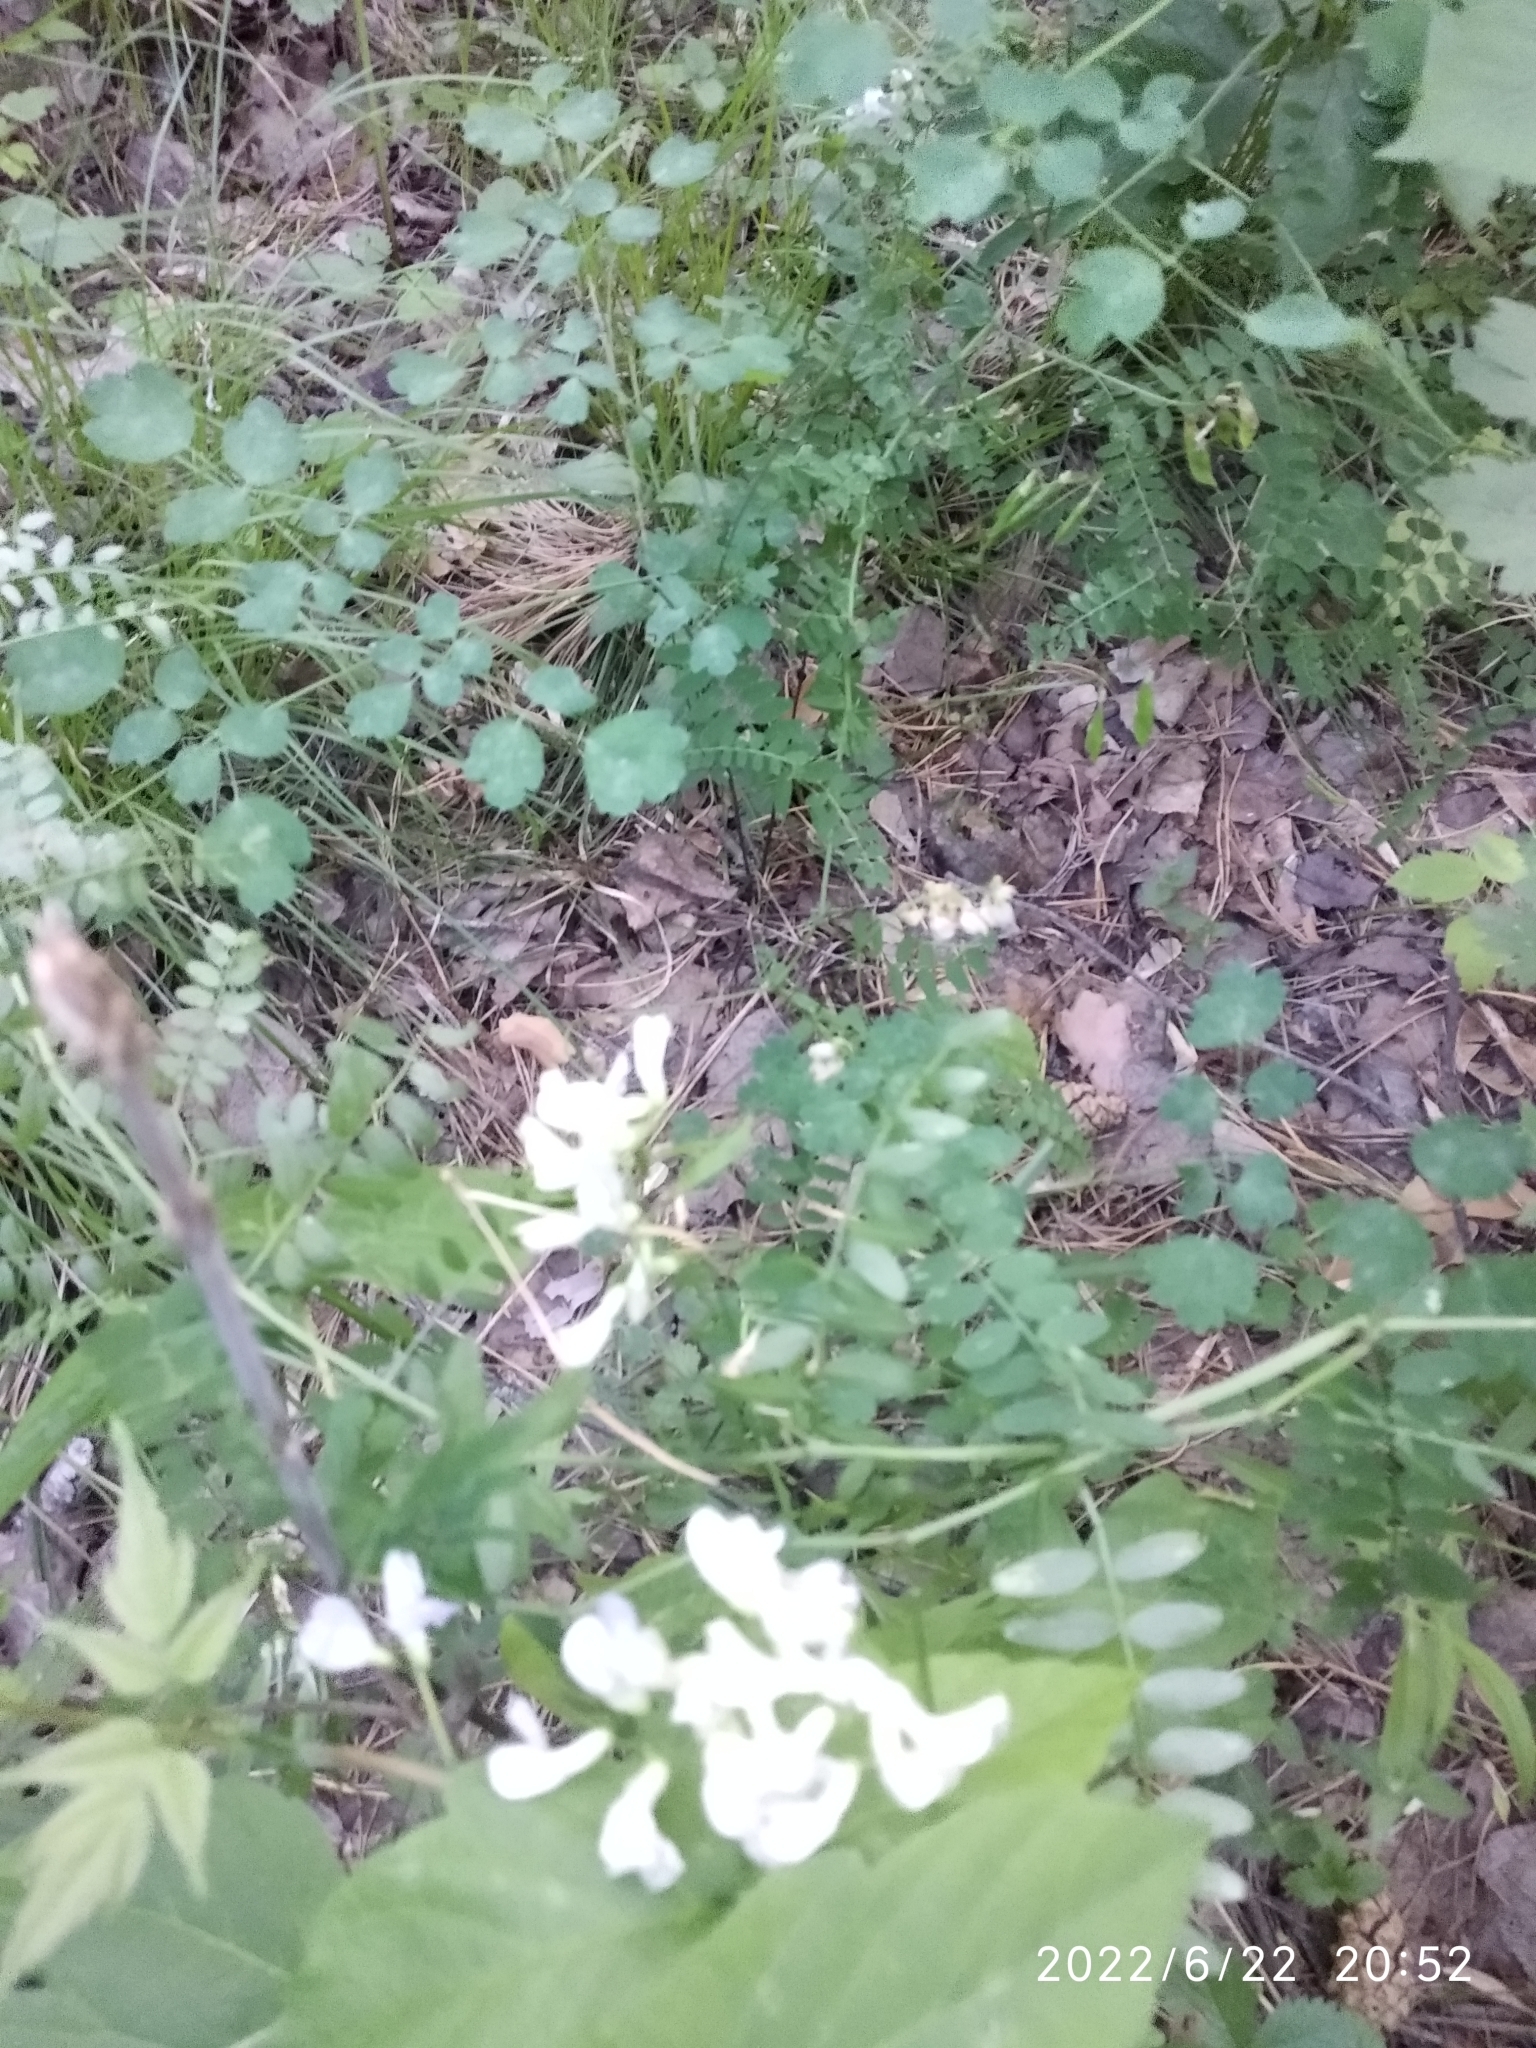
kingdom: Plantae
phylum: Tracheophyta
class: Magnoliopsida
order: Fabales
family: Fabaceae
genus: Vicia
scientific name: Vicia sylvatica
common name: Wood vetch
